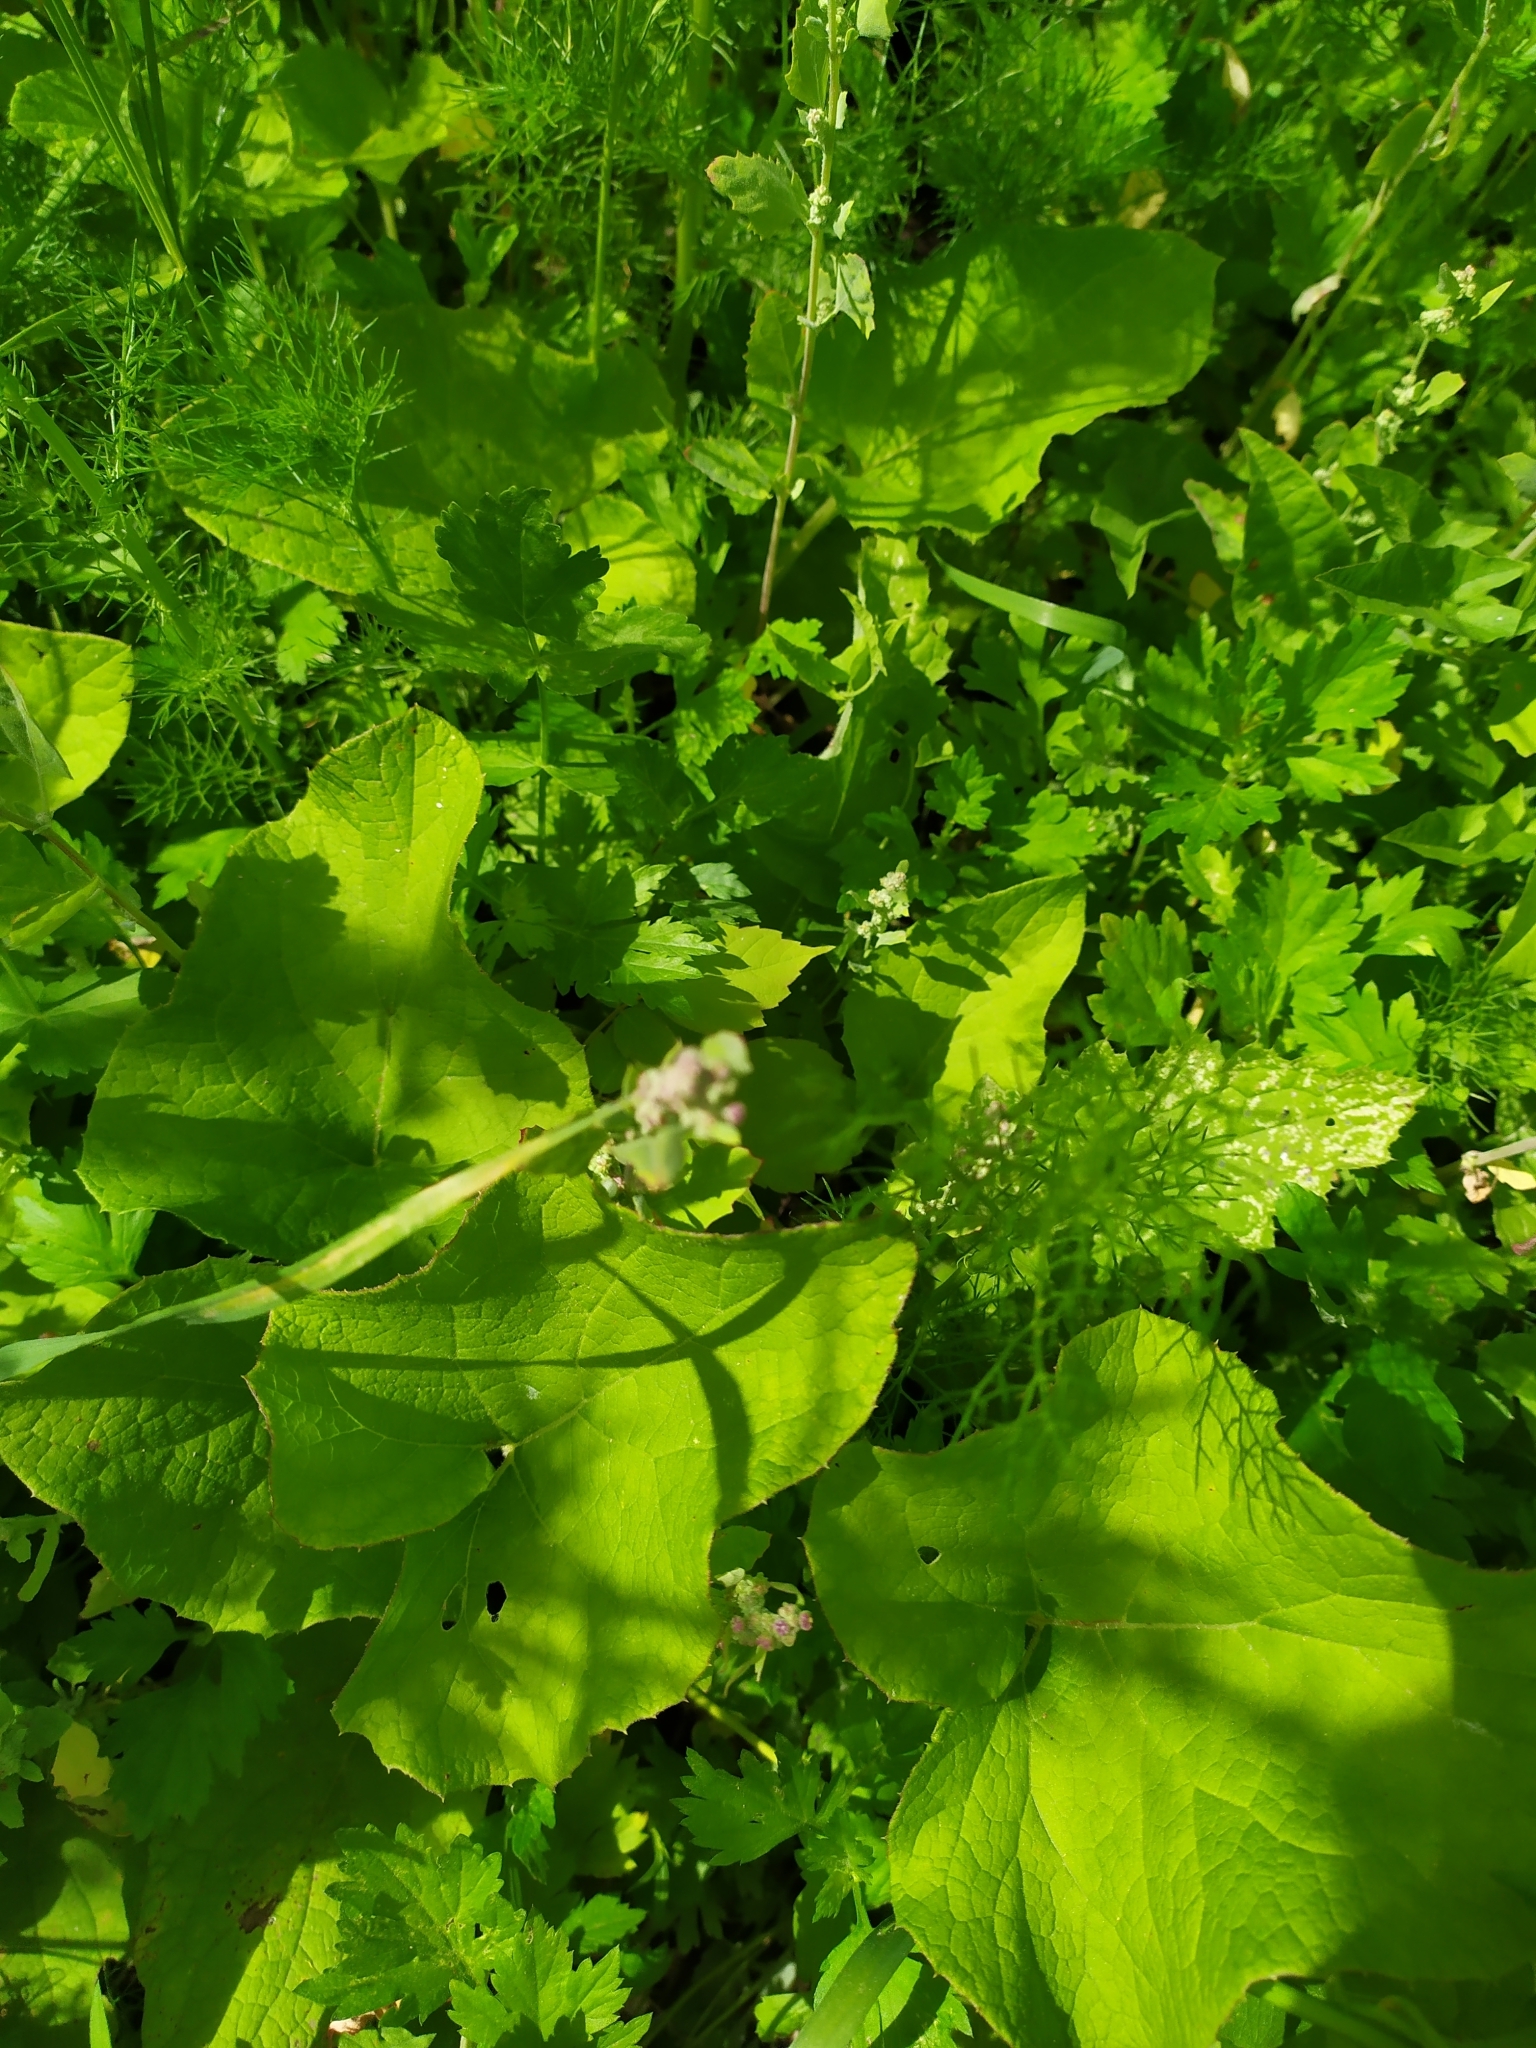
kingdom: Plantae
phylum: Tracheophyta
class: Magnoliopsida
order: Asterales
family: Asteraceae
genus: Arctium
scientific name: Arctium minus
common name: Lesser burdock
